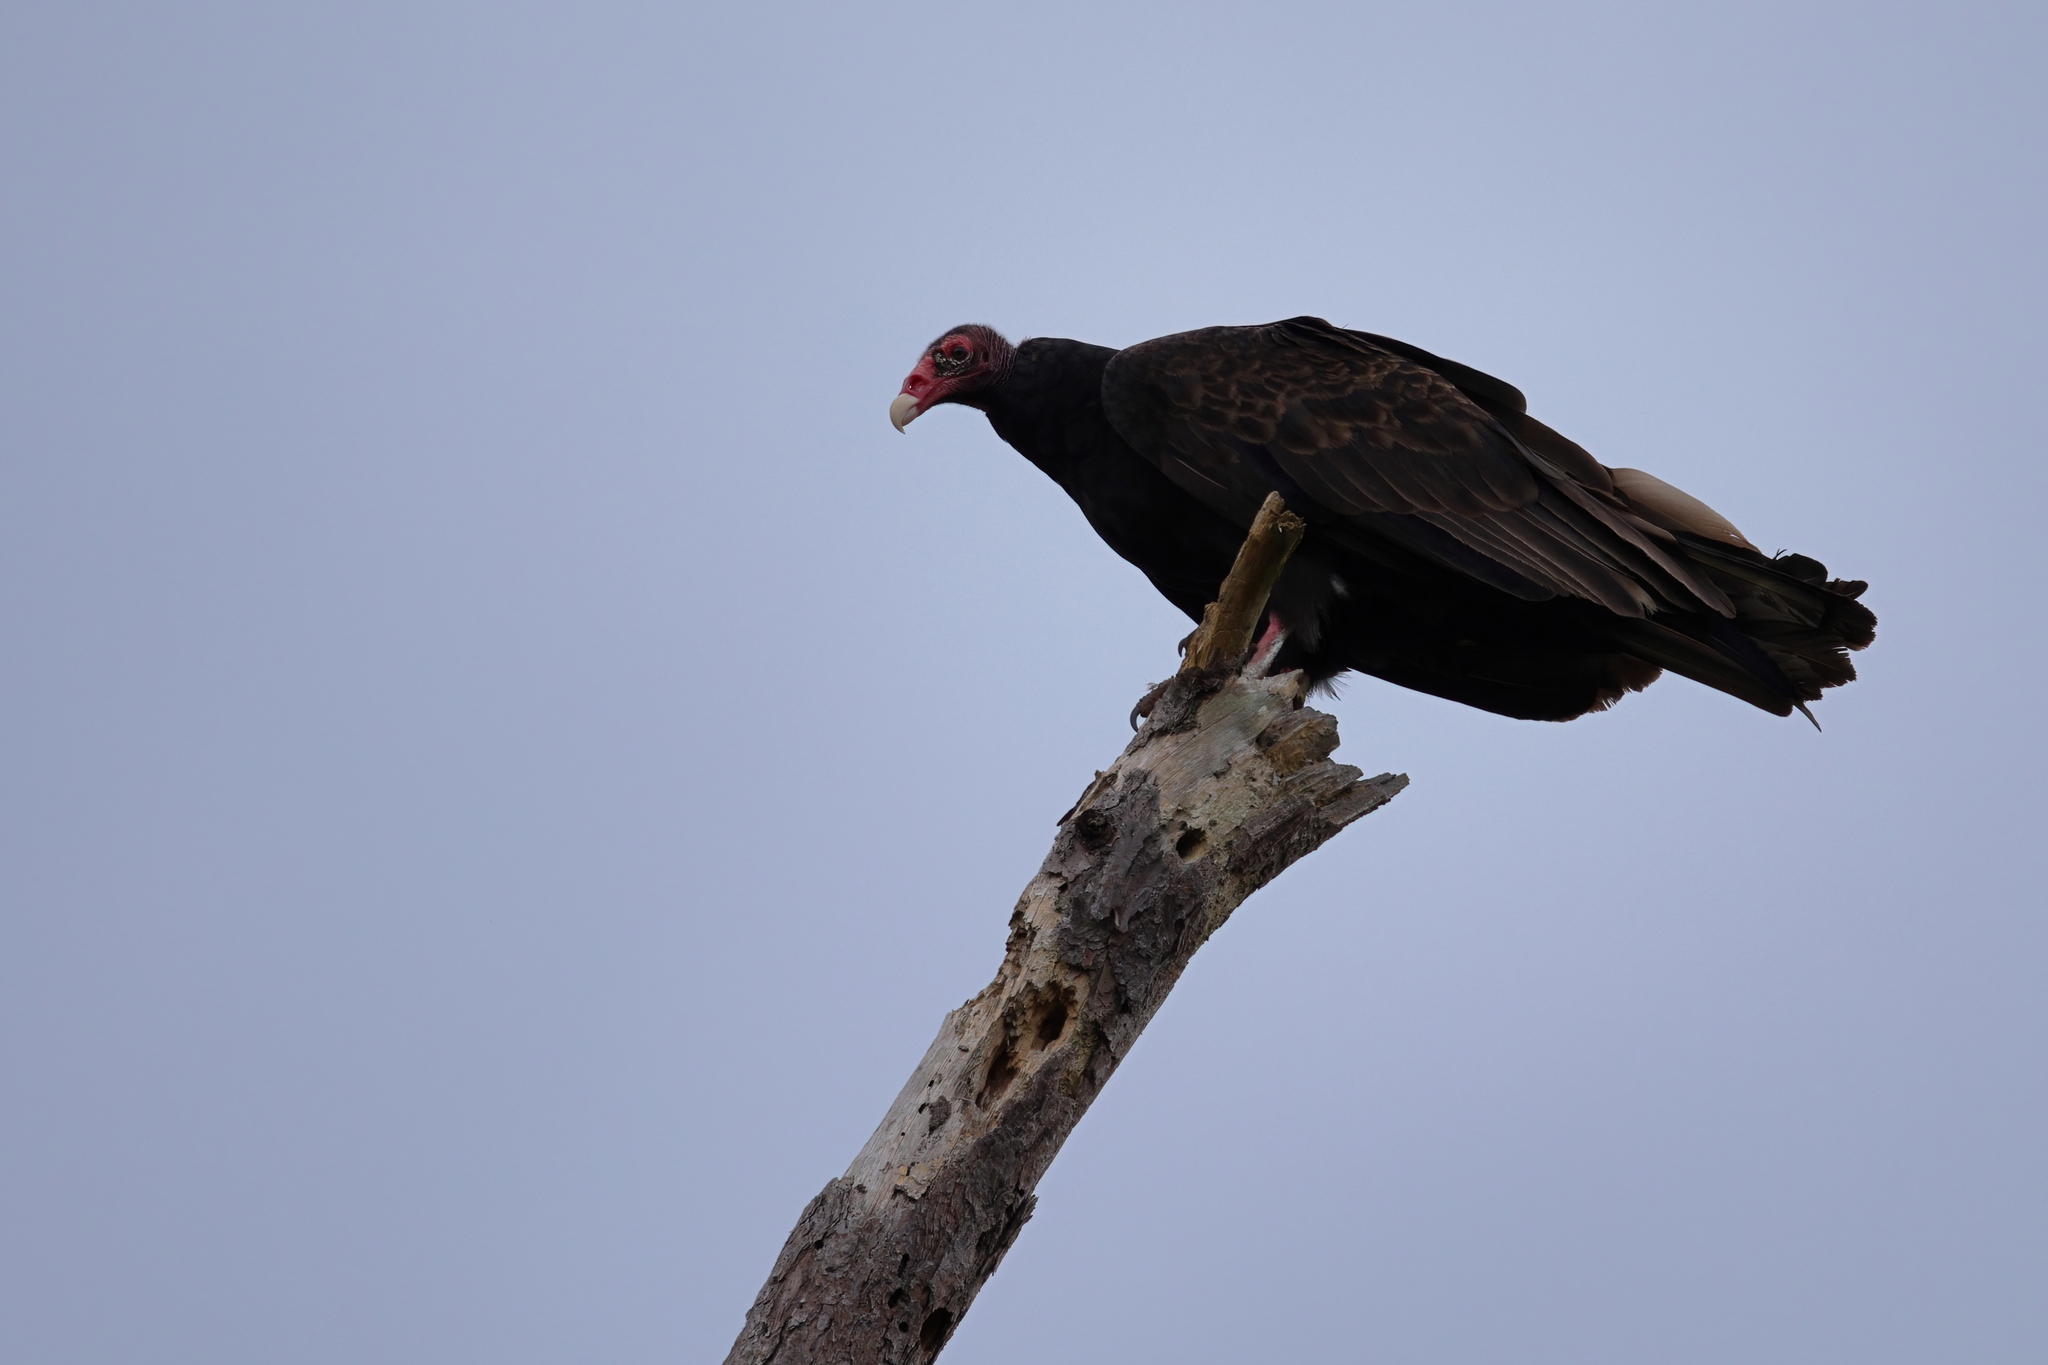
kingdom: Animalia
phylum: Chordata
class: Aves
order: Accipitriformes
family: Cathartidae
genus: Cathartes
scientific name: Cathartes aura
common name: Turkey vulture
